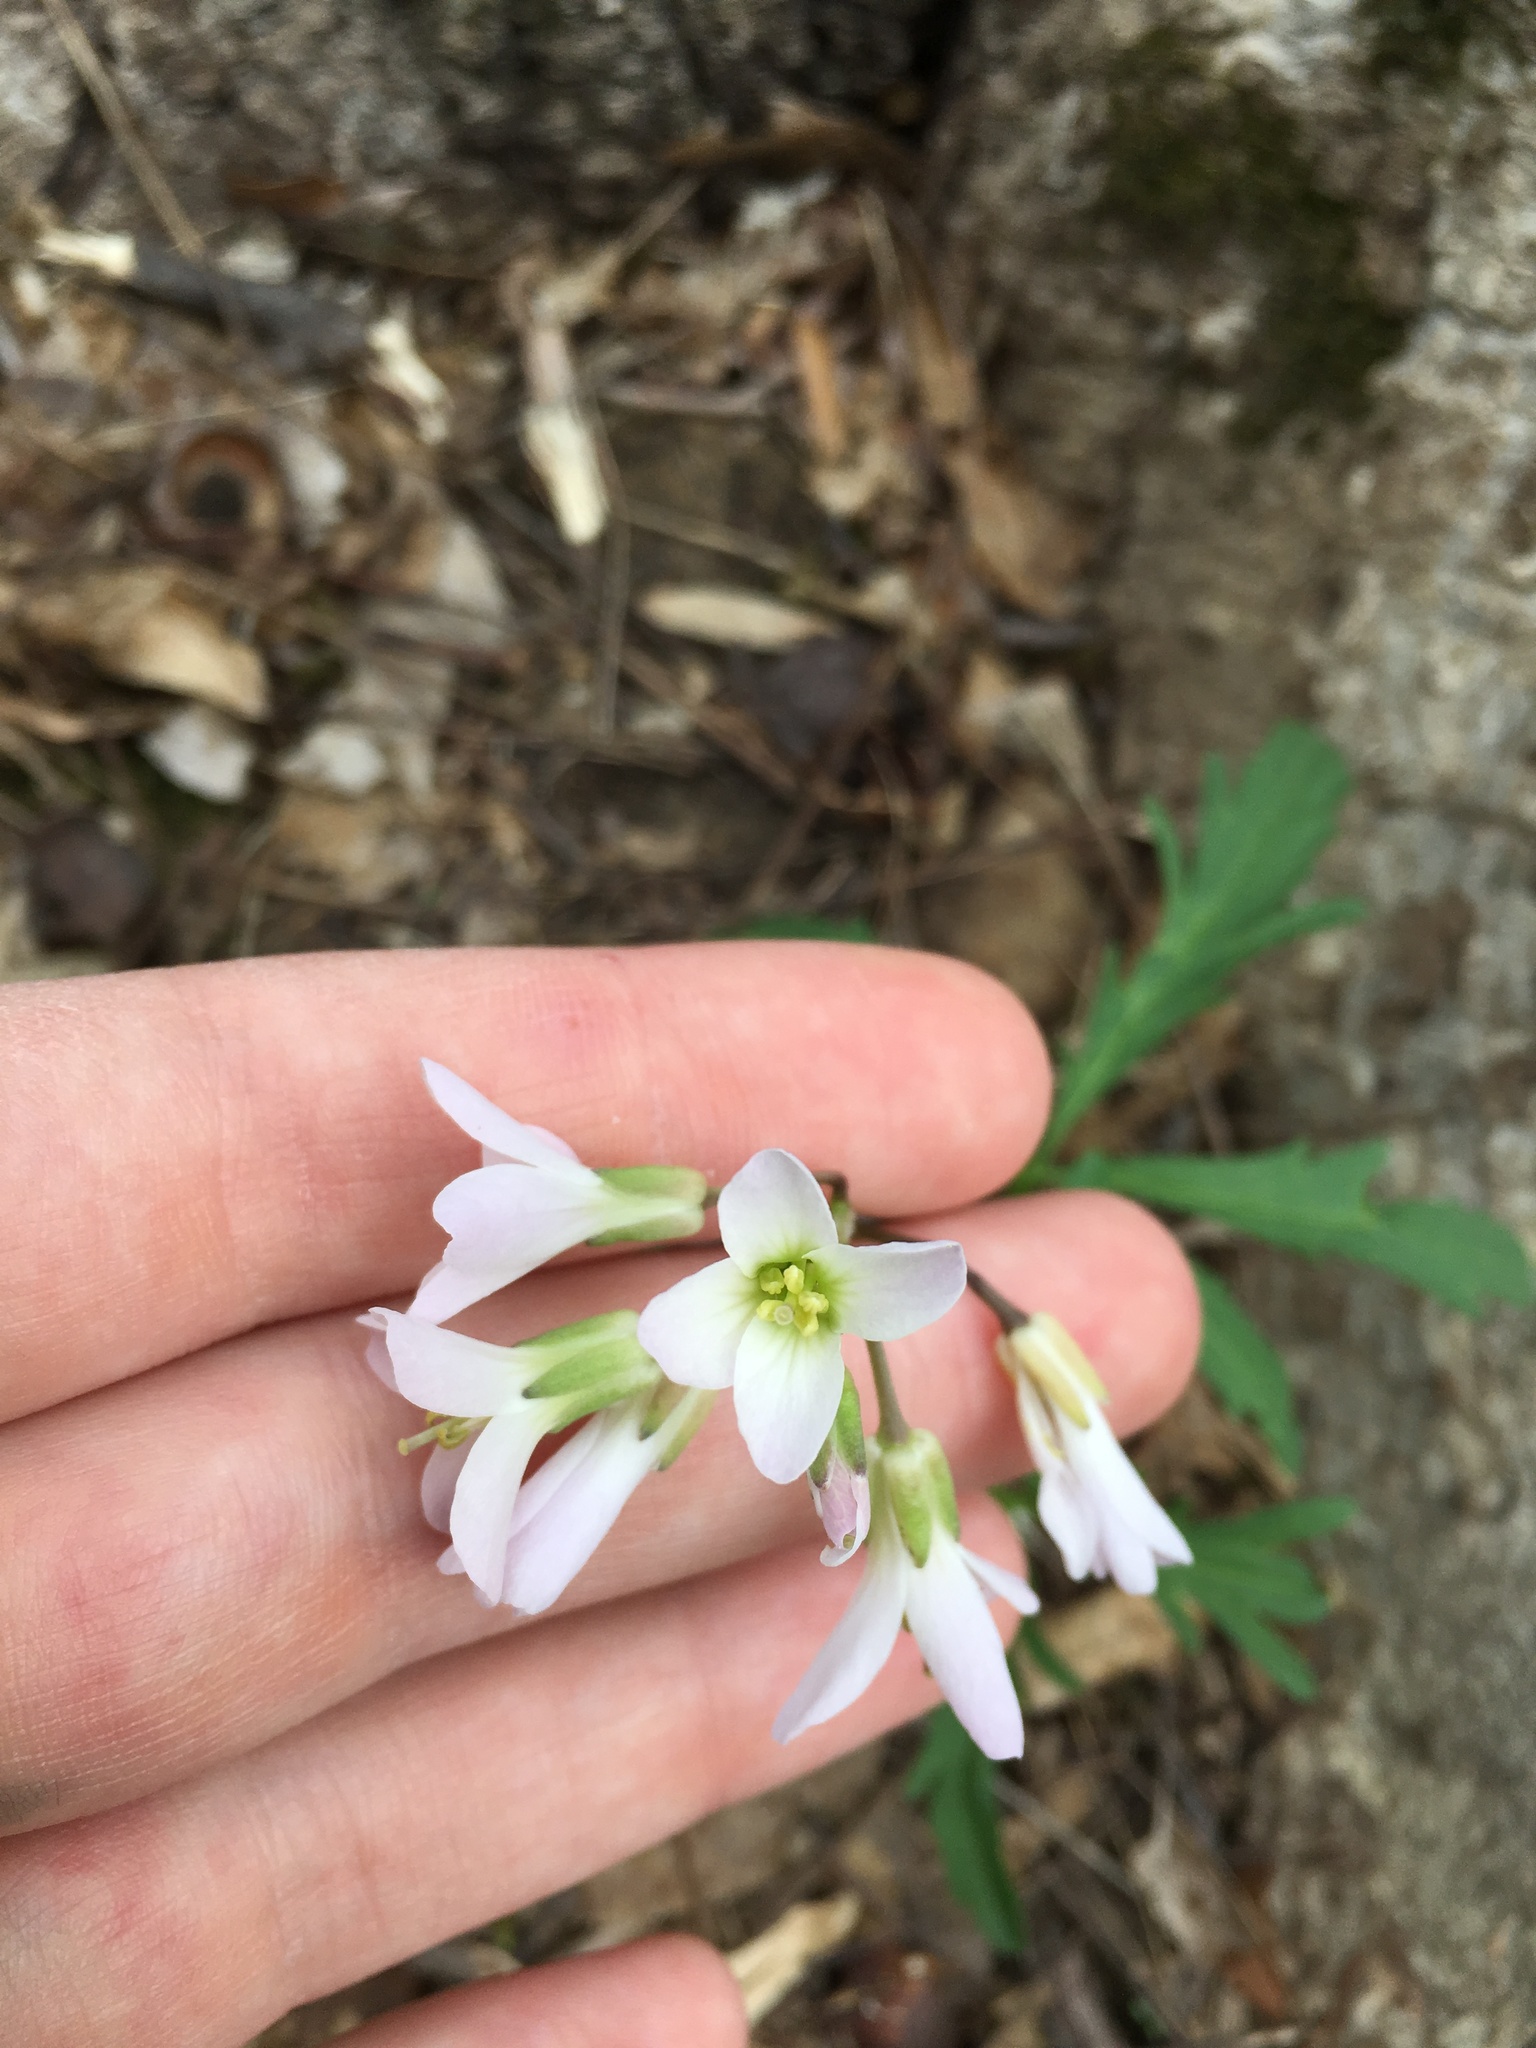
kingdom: Plantae
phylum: Tracheophyta
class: Magnoliopsida
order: Brassicales
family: Brassicaceae
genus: Cardamine
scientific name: Cardamine concatenata
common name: Cut-leaf toothcup
